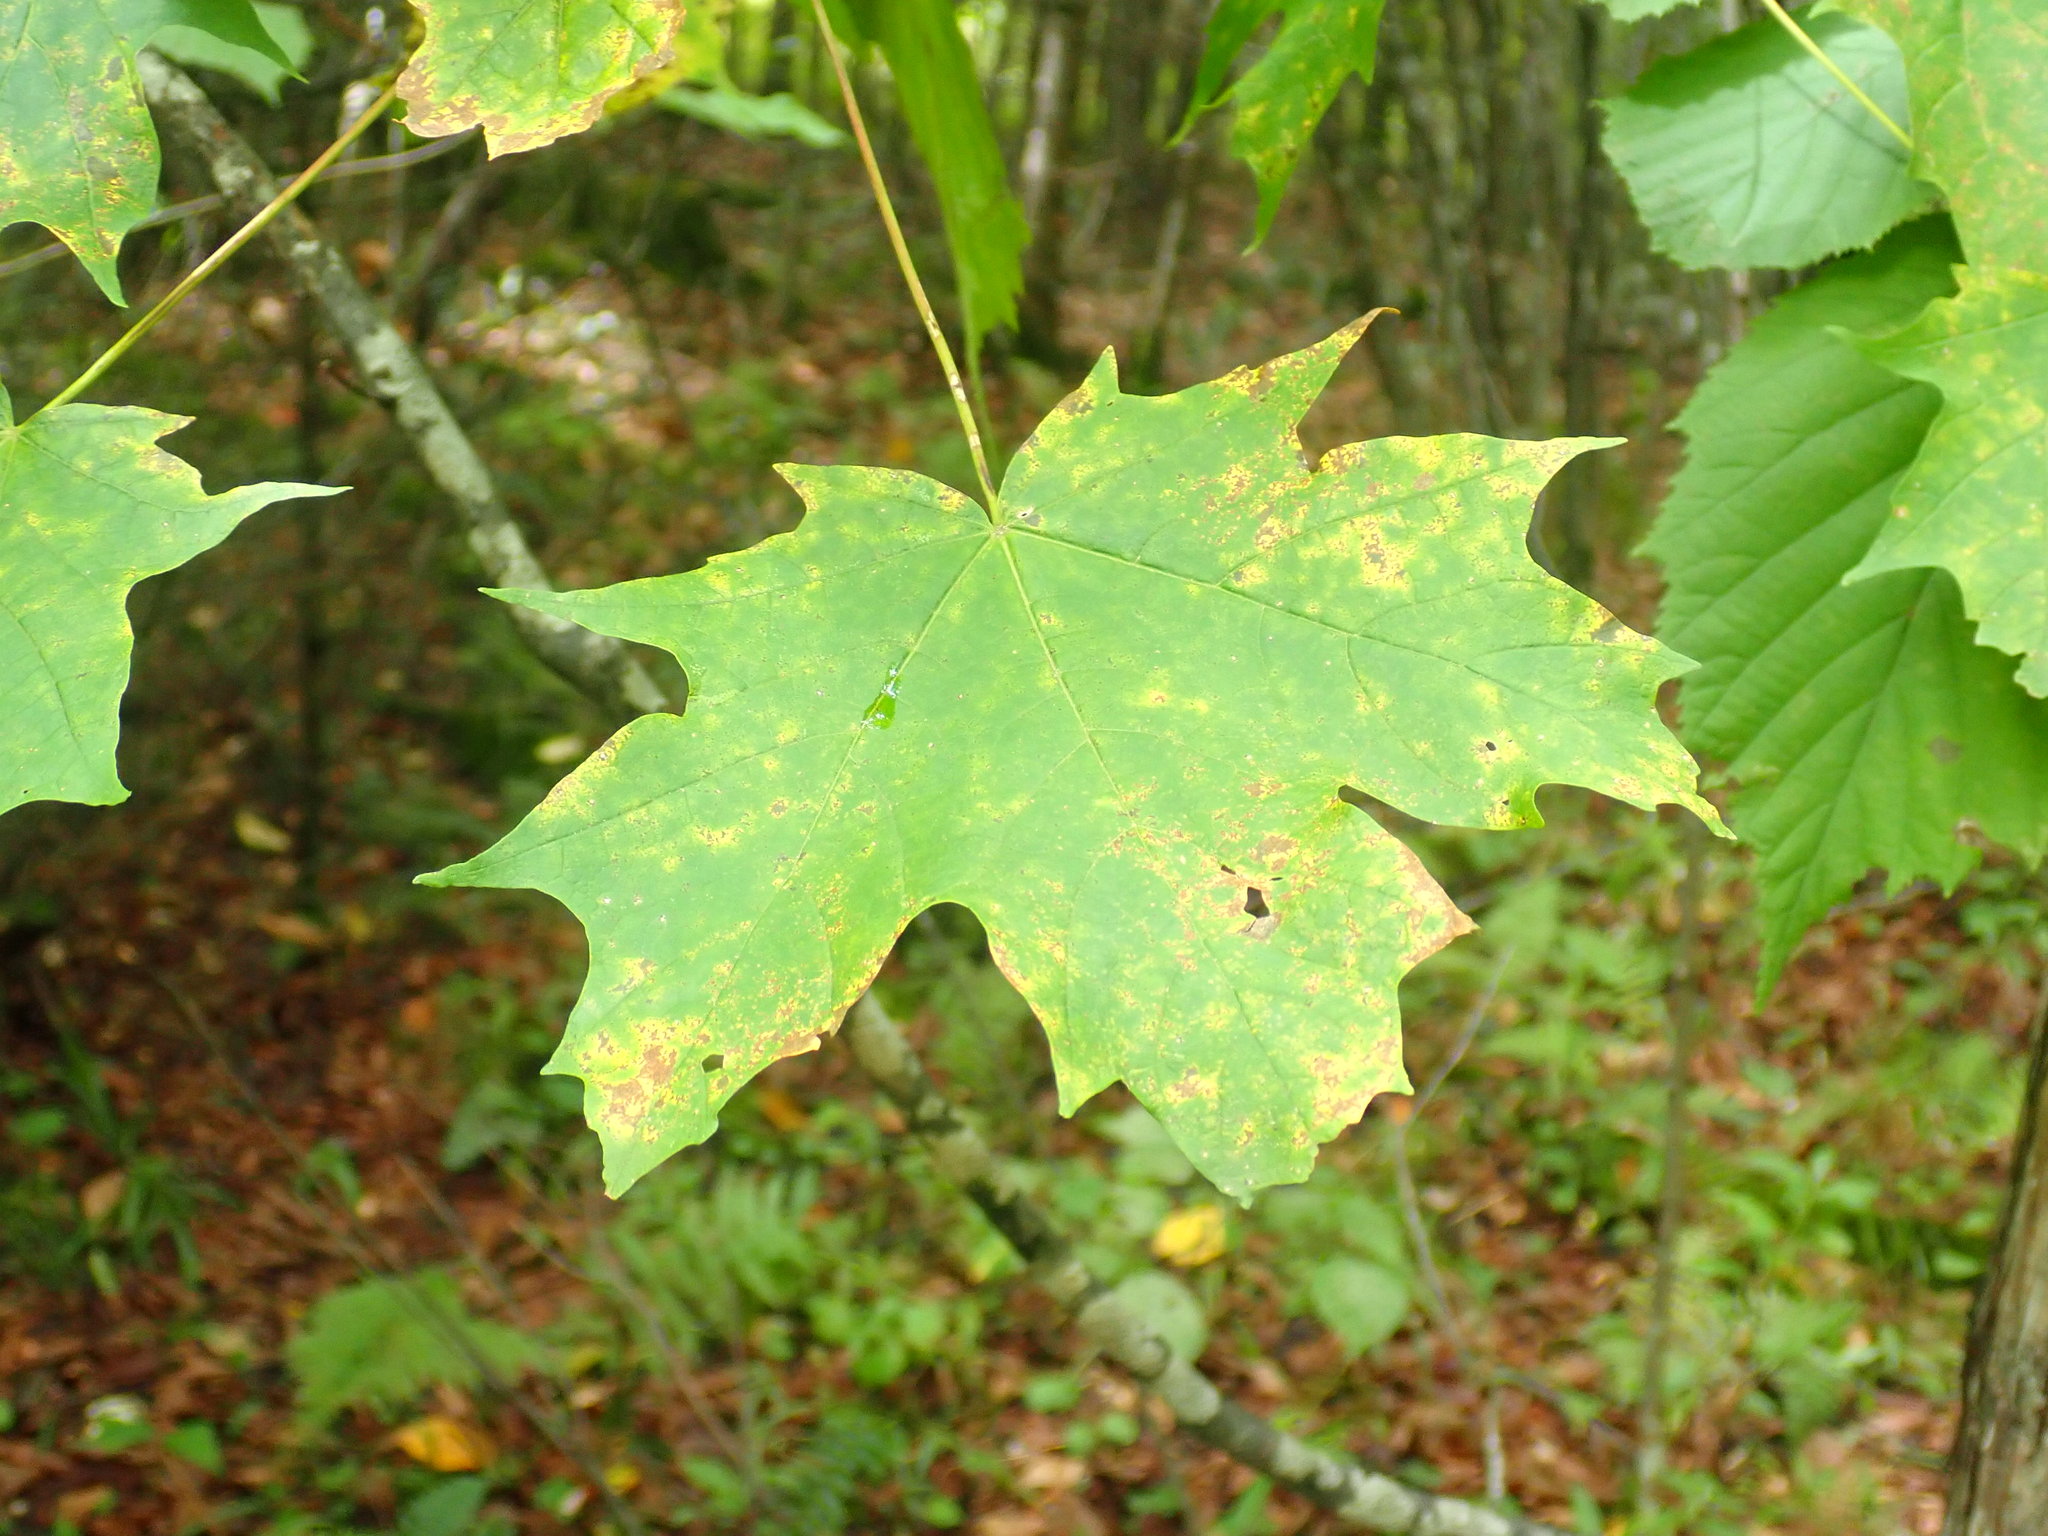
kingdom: Plantae
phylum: Tracheophyta
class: Magnoliopsida
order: Sapindales
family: Sapindaceae
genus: Acer
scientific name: Acer saccharum
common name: Sugar maple
